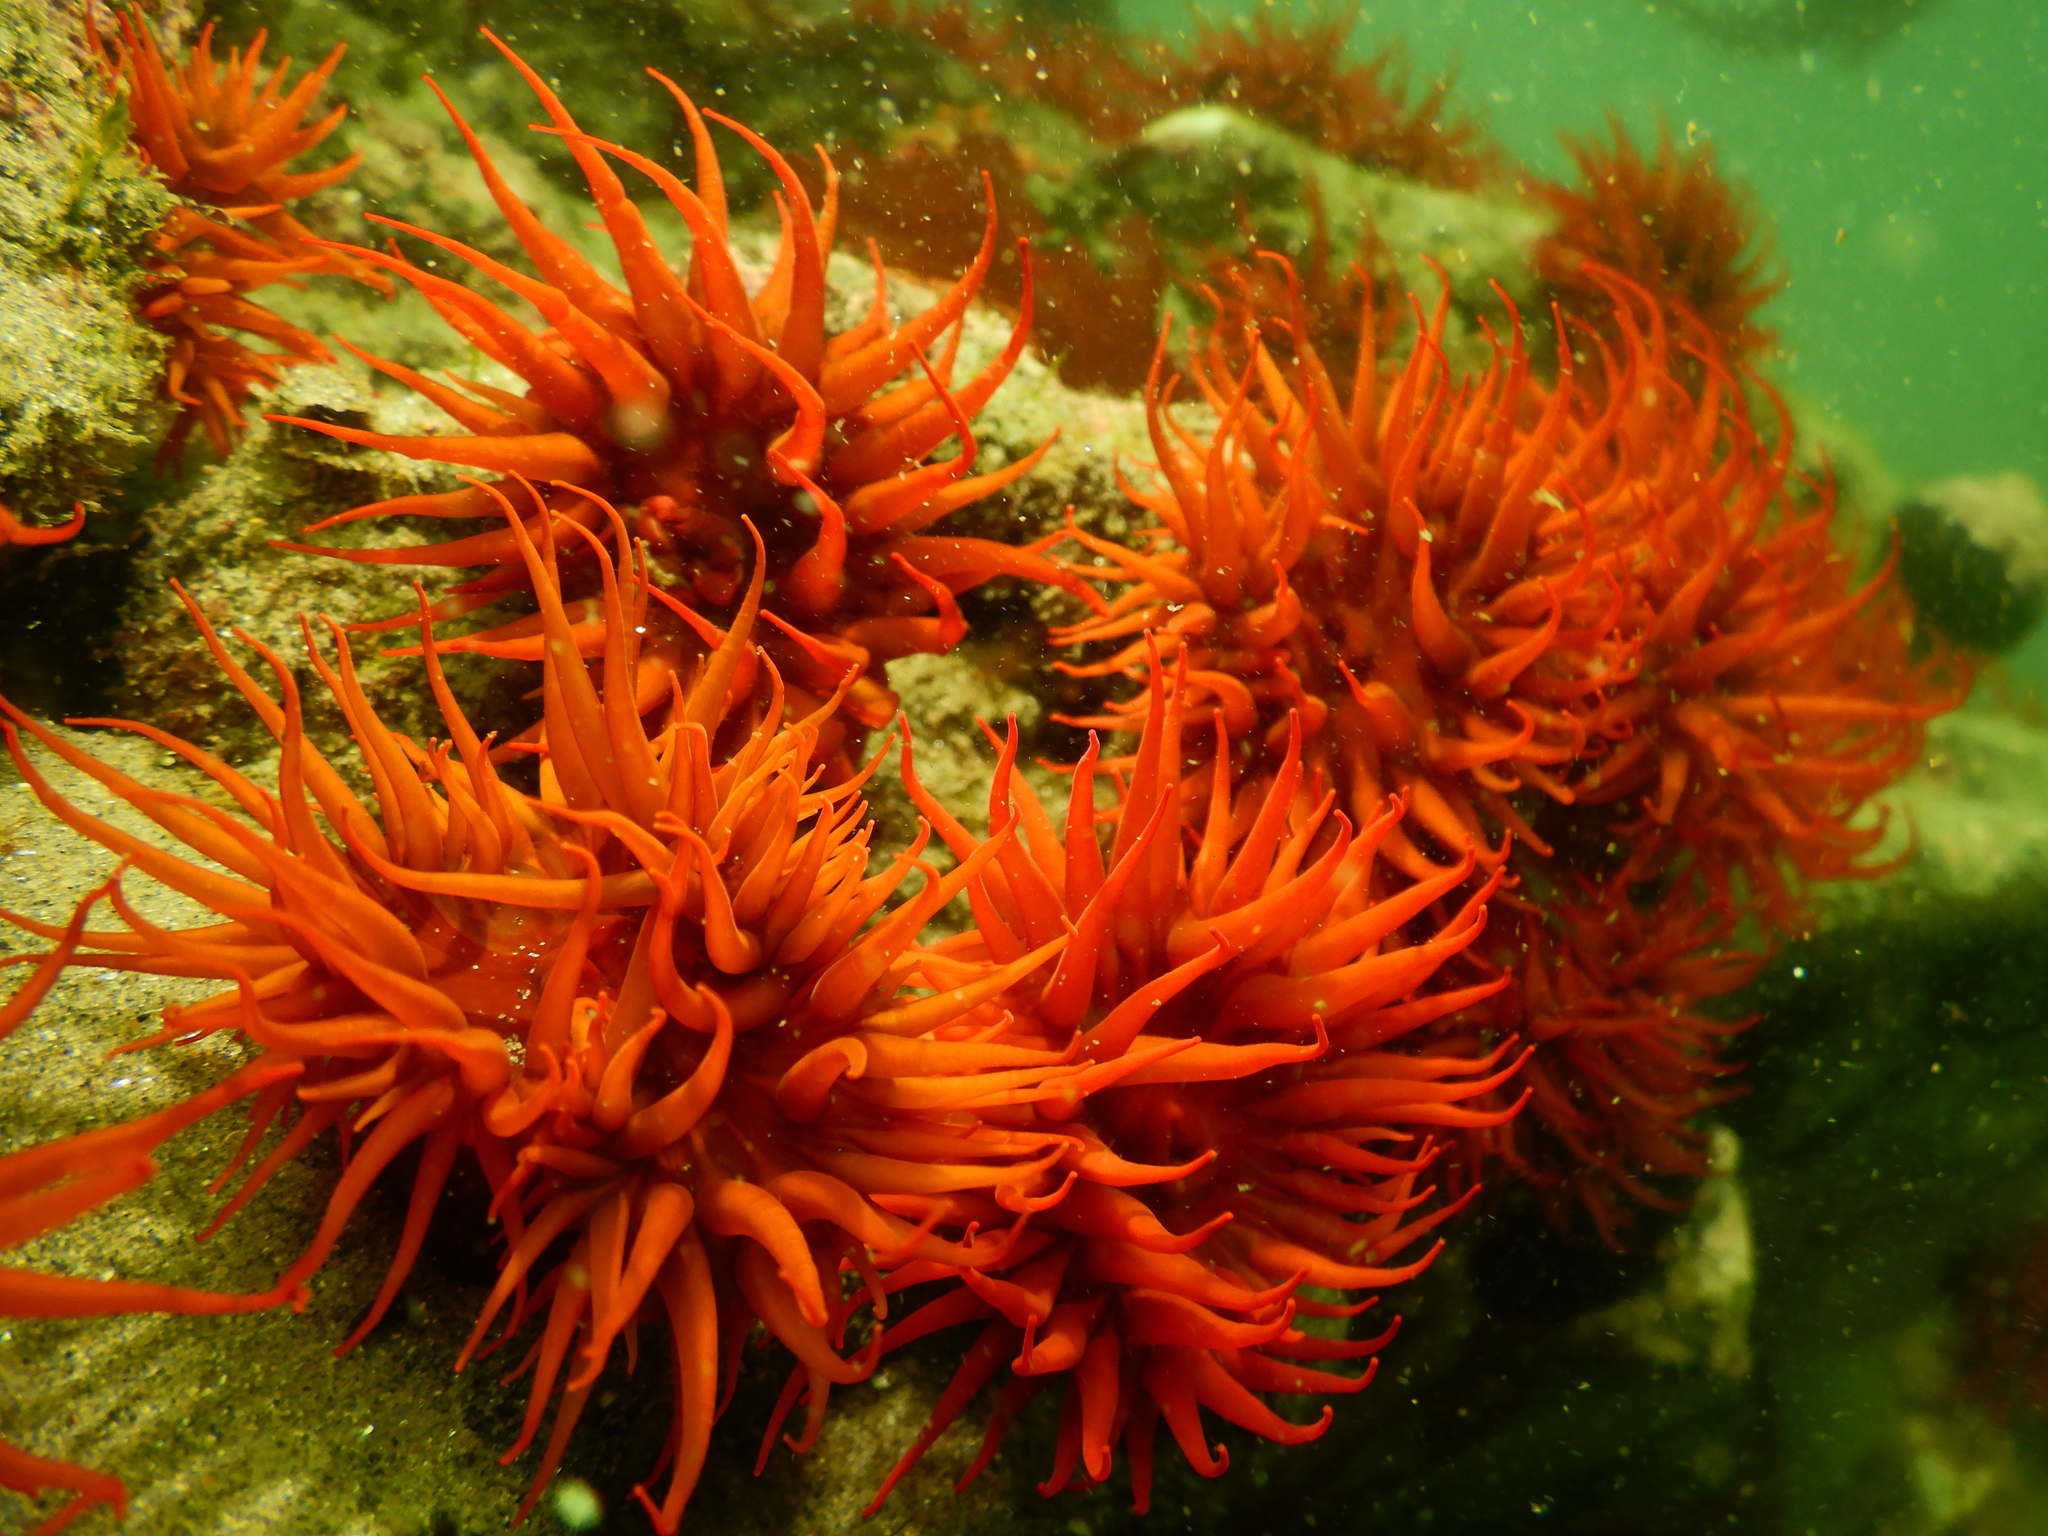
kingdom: Animalia
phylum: Cnidaria
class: Anthozoa
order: Actiniaria
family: Actiniidae
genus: Anemonia
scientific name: Anemonia alicemartinae
